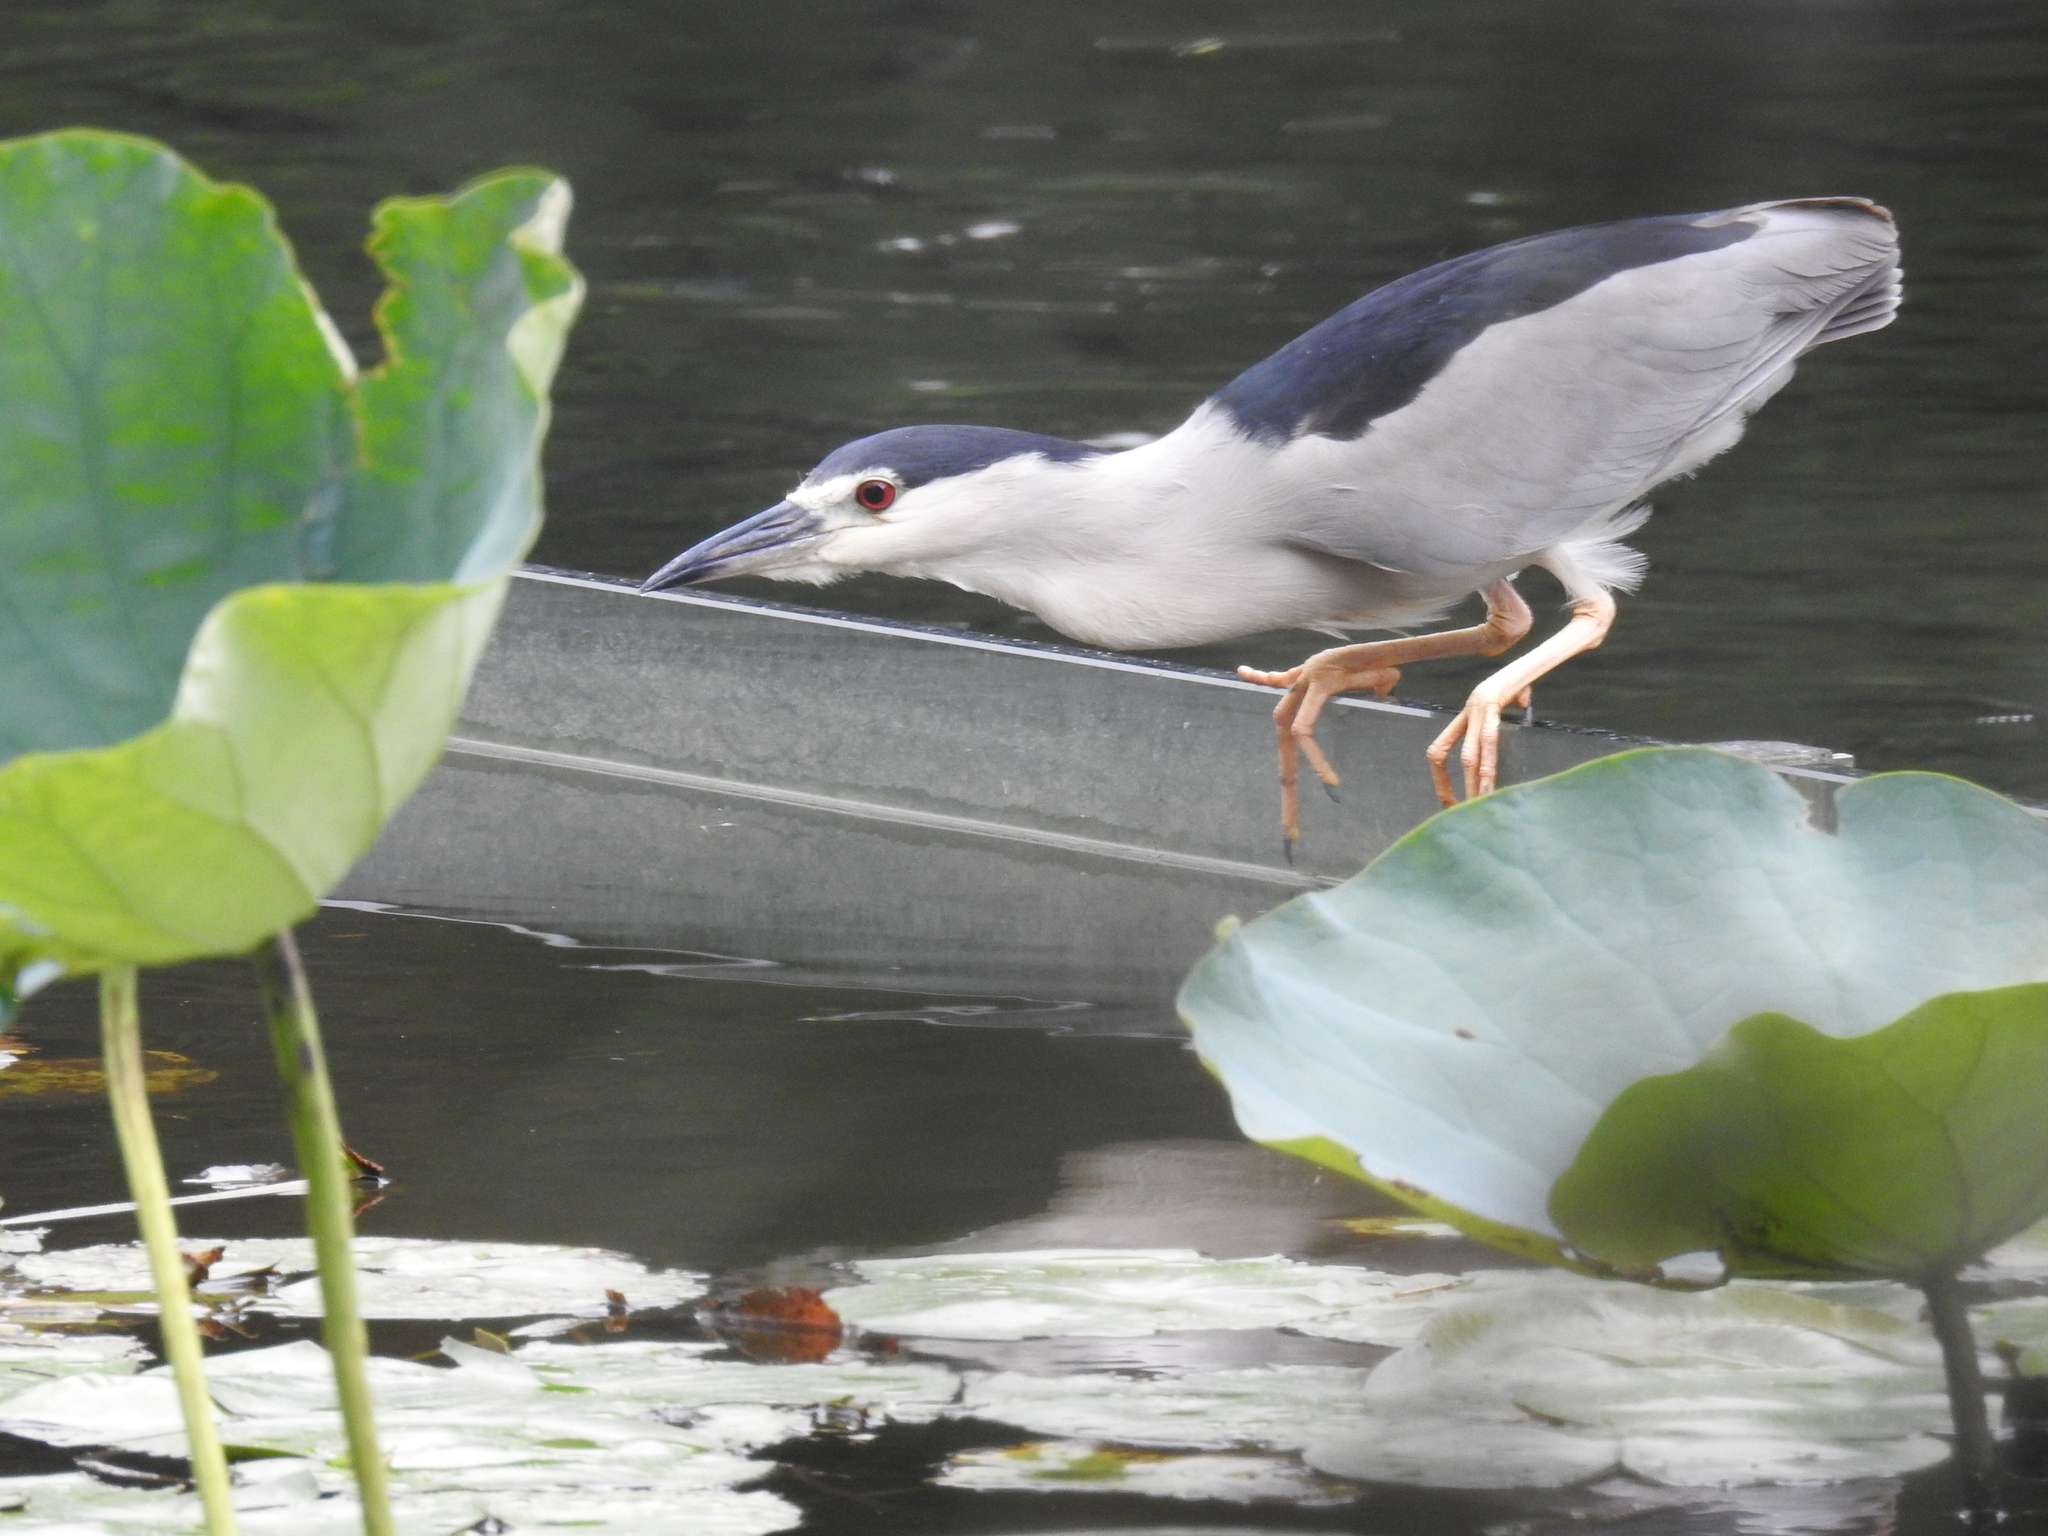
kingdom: Animalia
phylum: Chordata
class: Aves
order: Pelecaniformes
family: Ardeidae
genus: Nycticorax
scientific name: Nycticorax nycticorax
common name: Black-crowned night heron
